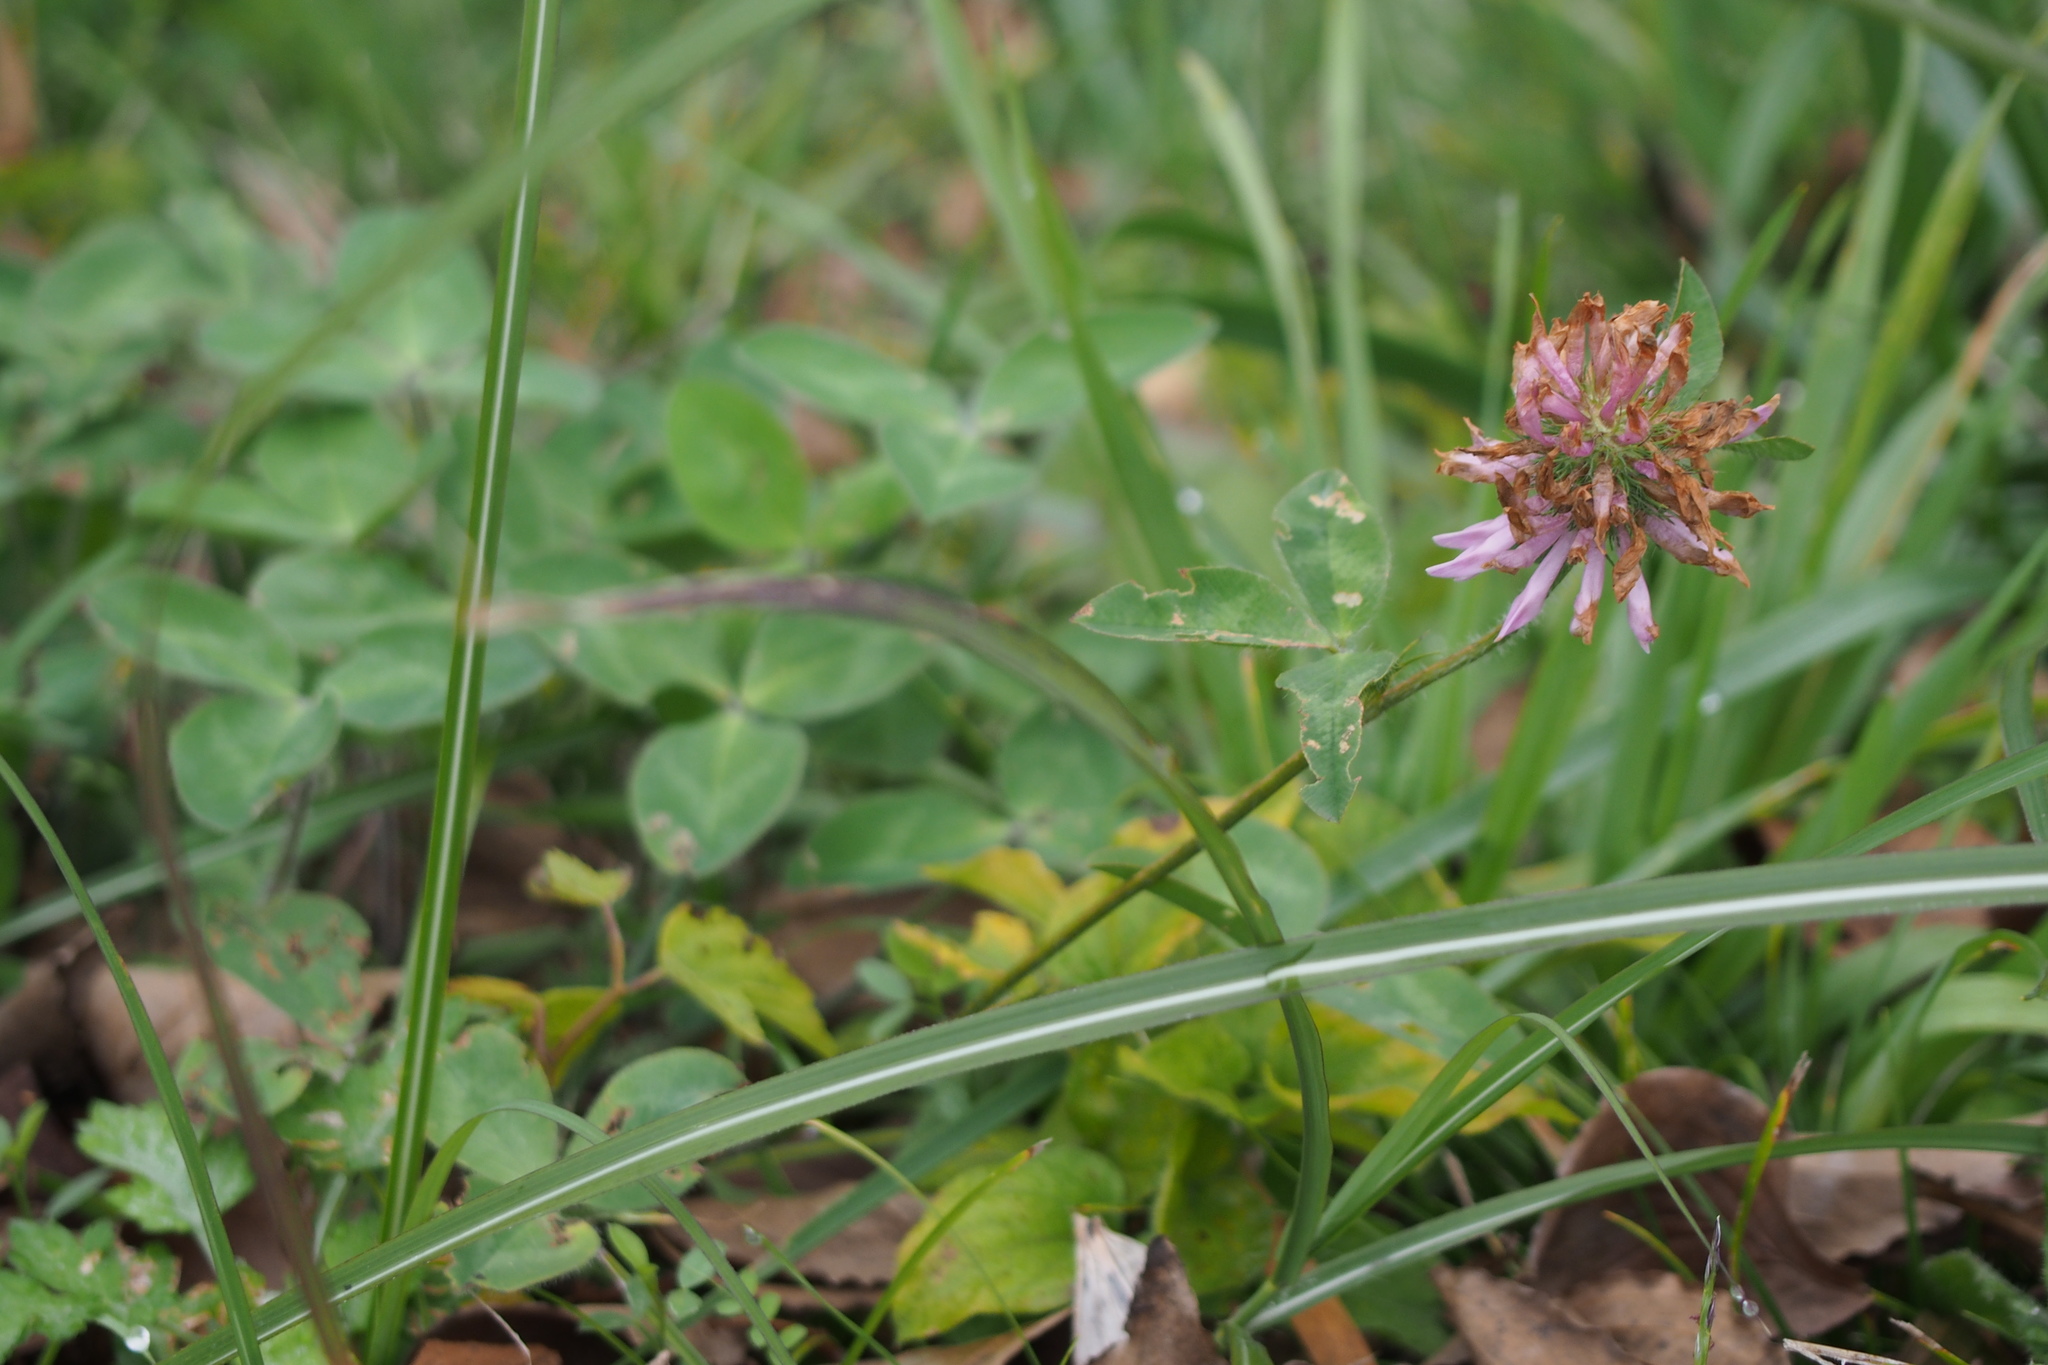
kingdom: Plantae
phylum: Tracheophyta
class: Magnoliopsida
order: Fabales
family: Fabaceae
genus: Trifolium
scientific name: Trifolium pratense
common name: Red clover
